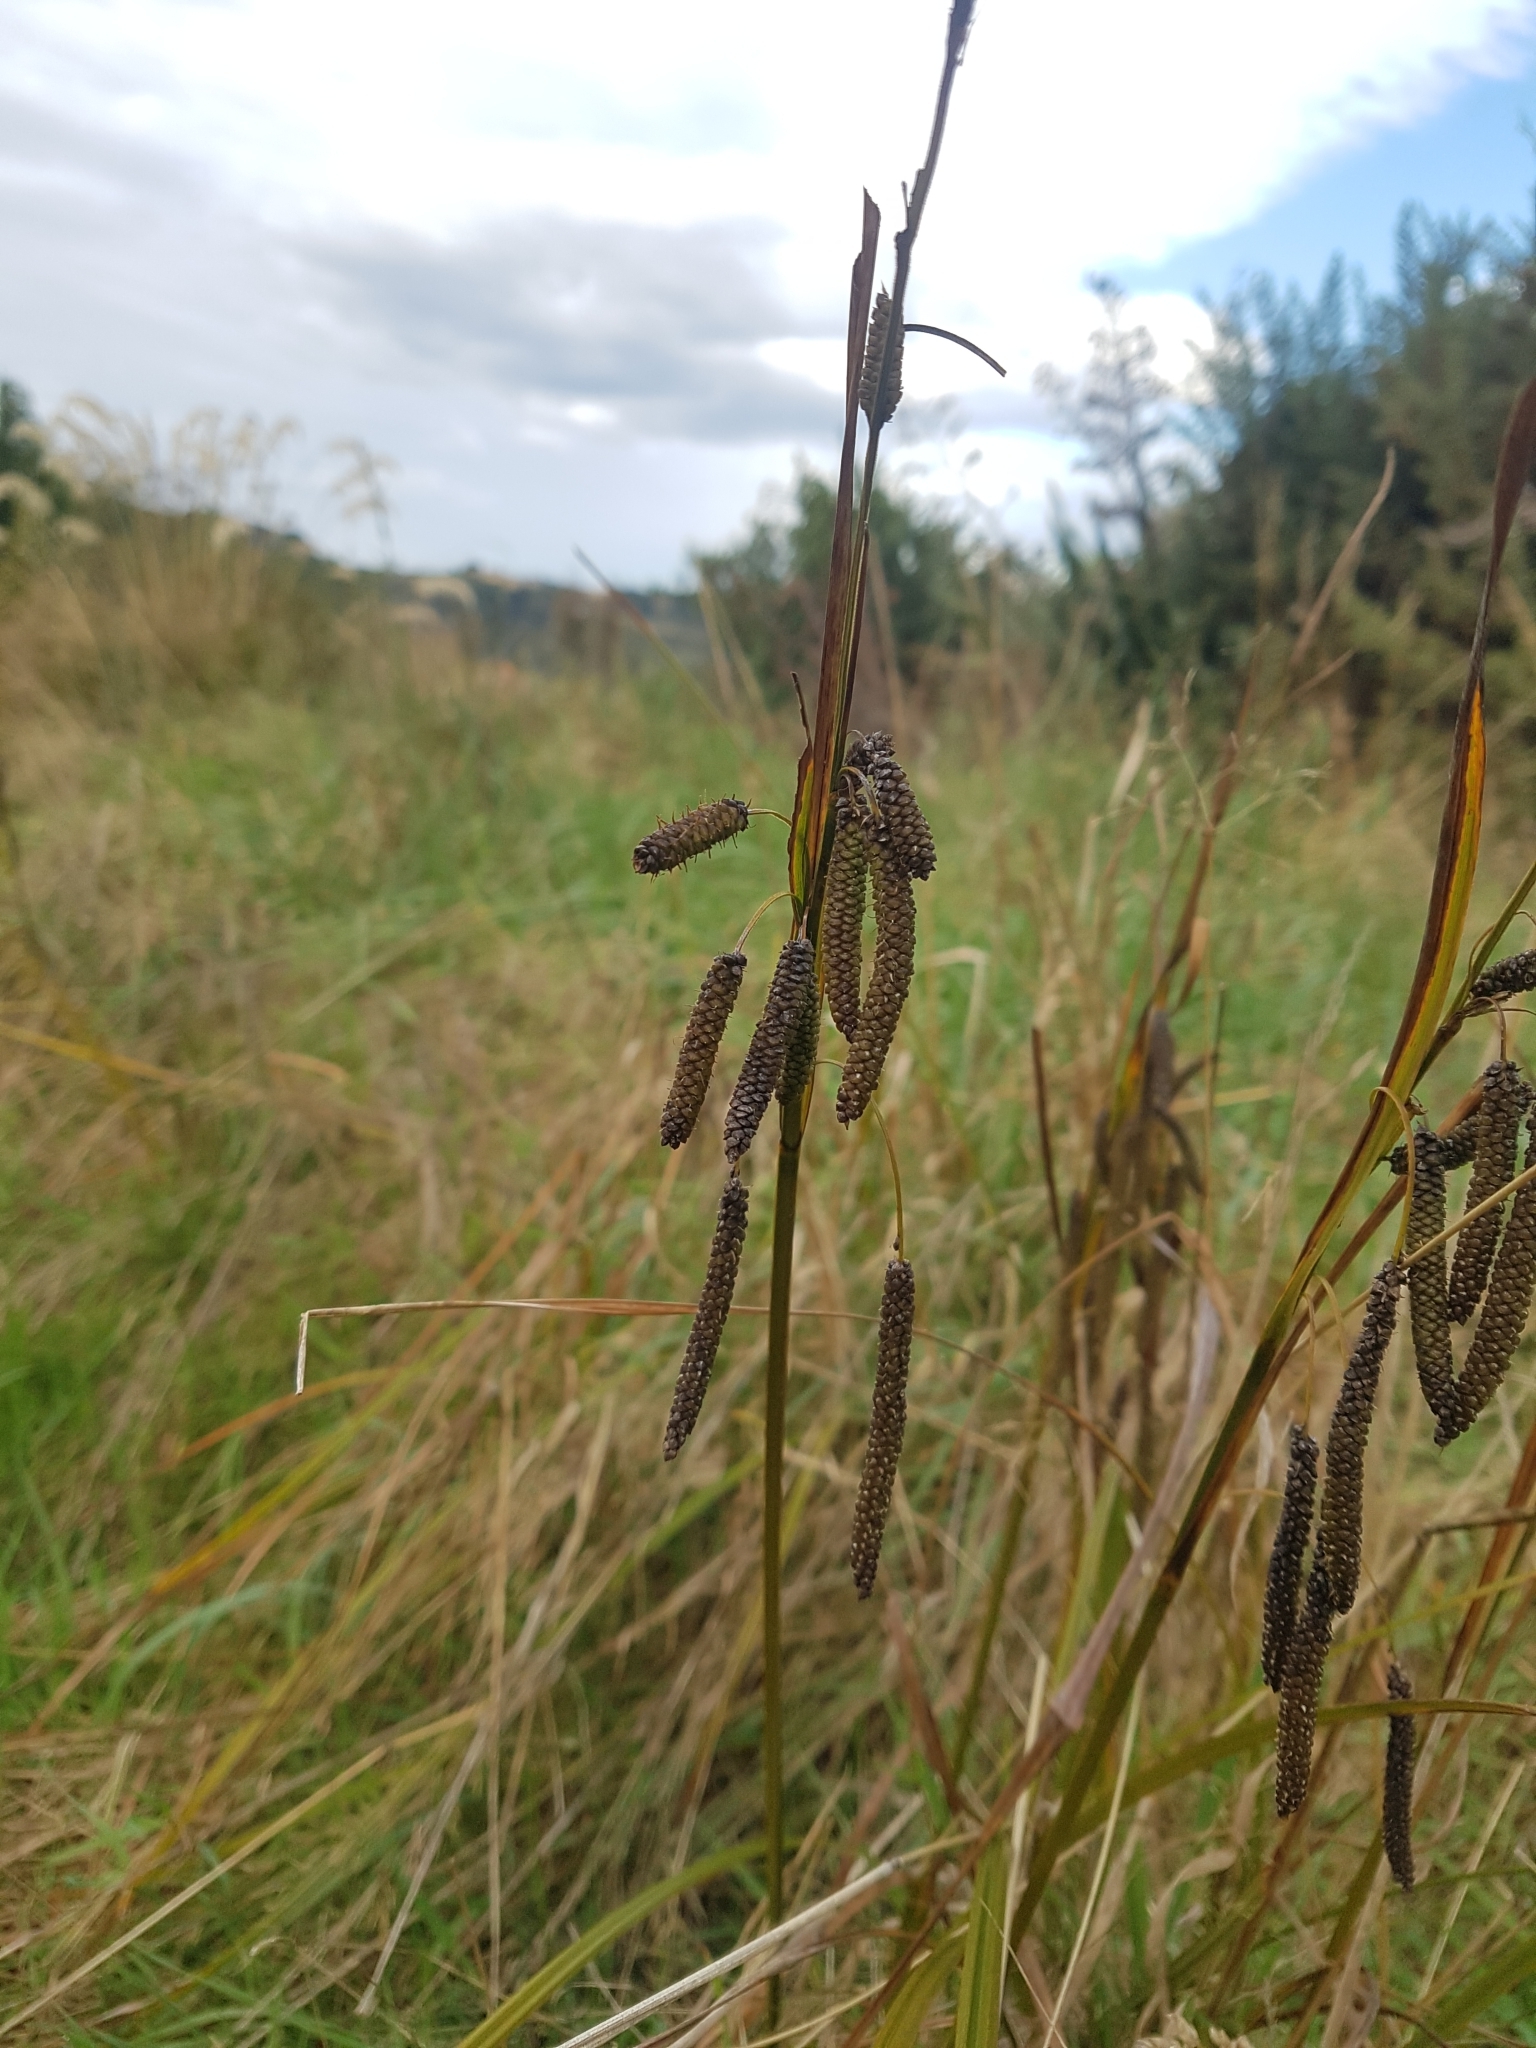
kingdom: Plantae
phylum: Tracheophyta
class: Liliopsida
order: Poales
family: Cyperaceae
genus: Carex
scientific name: Carex geminata
